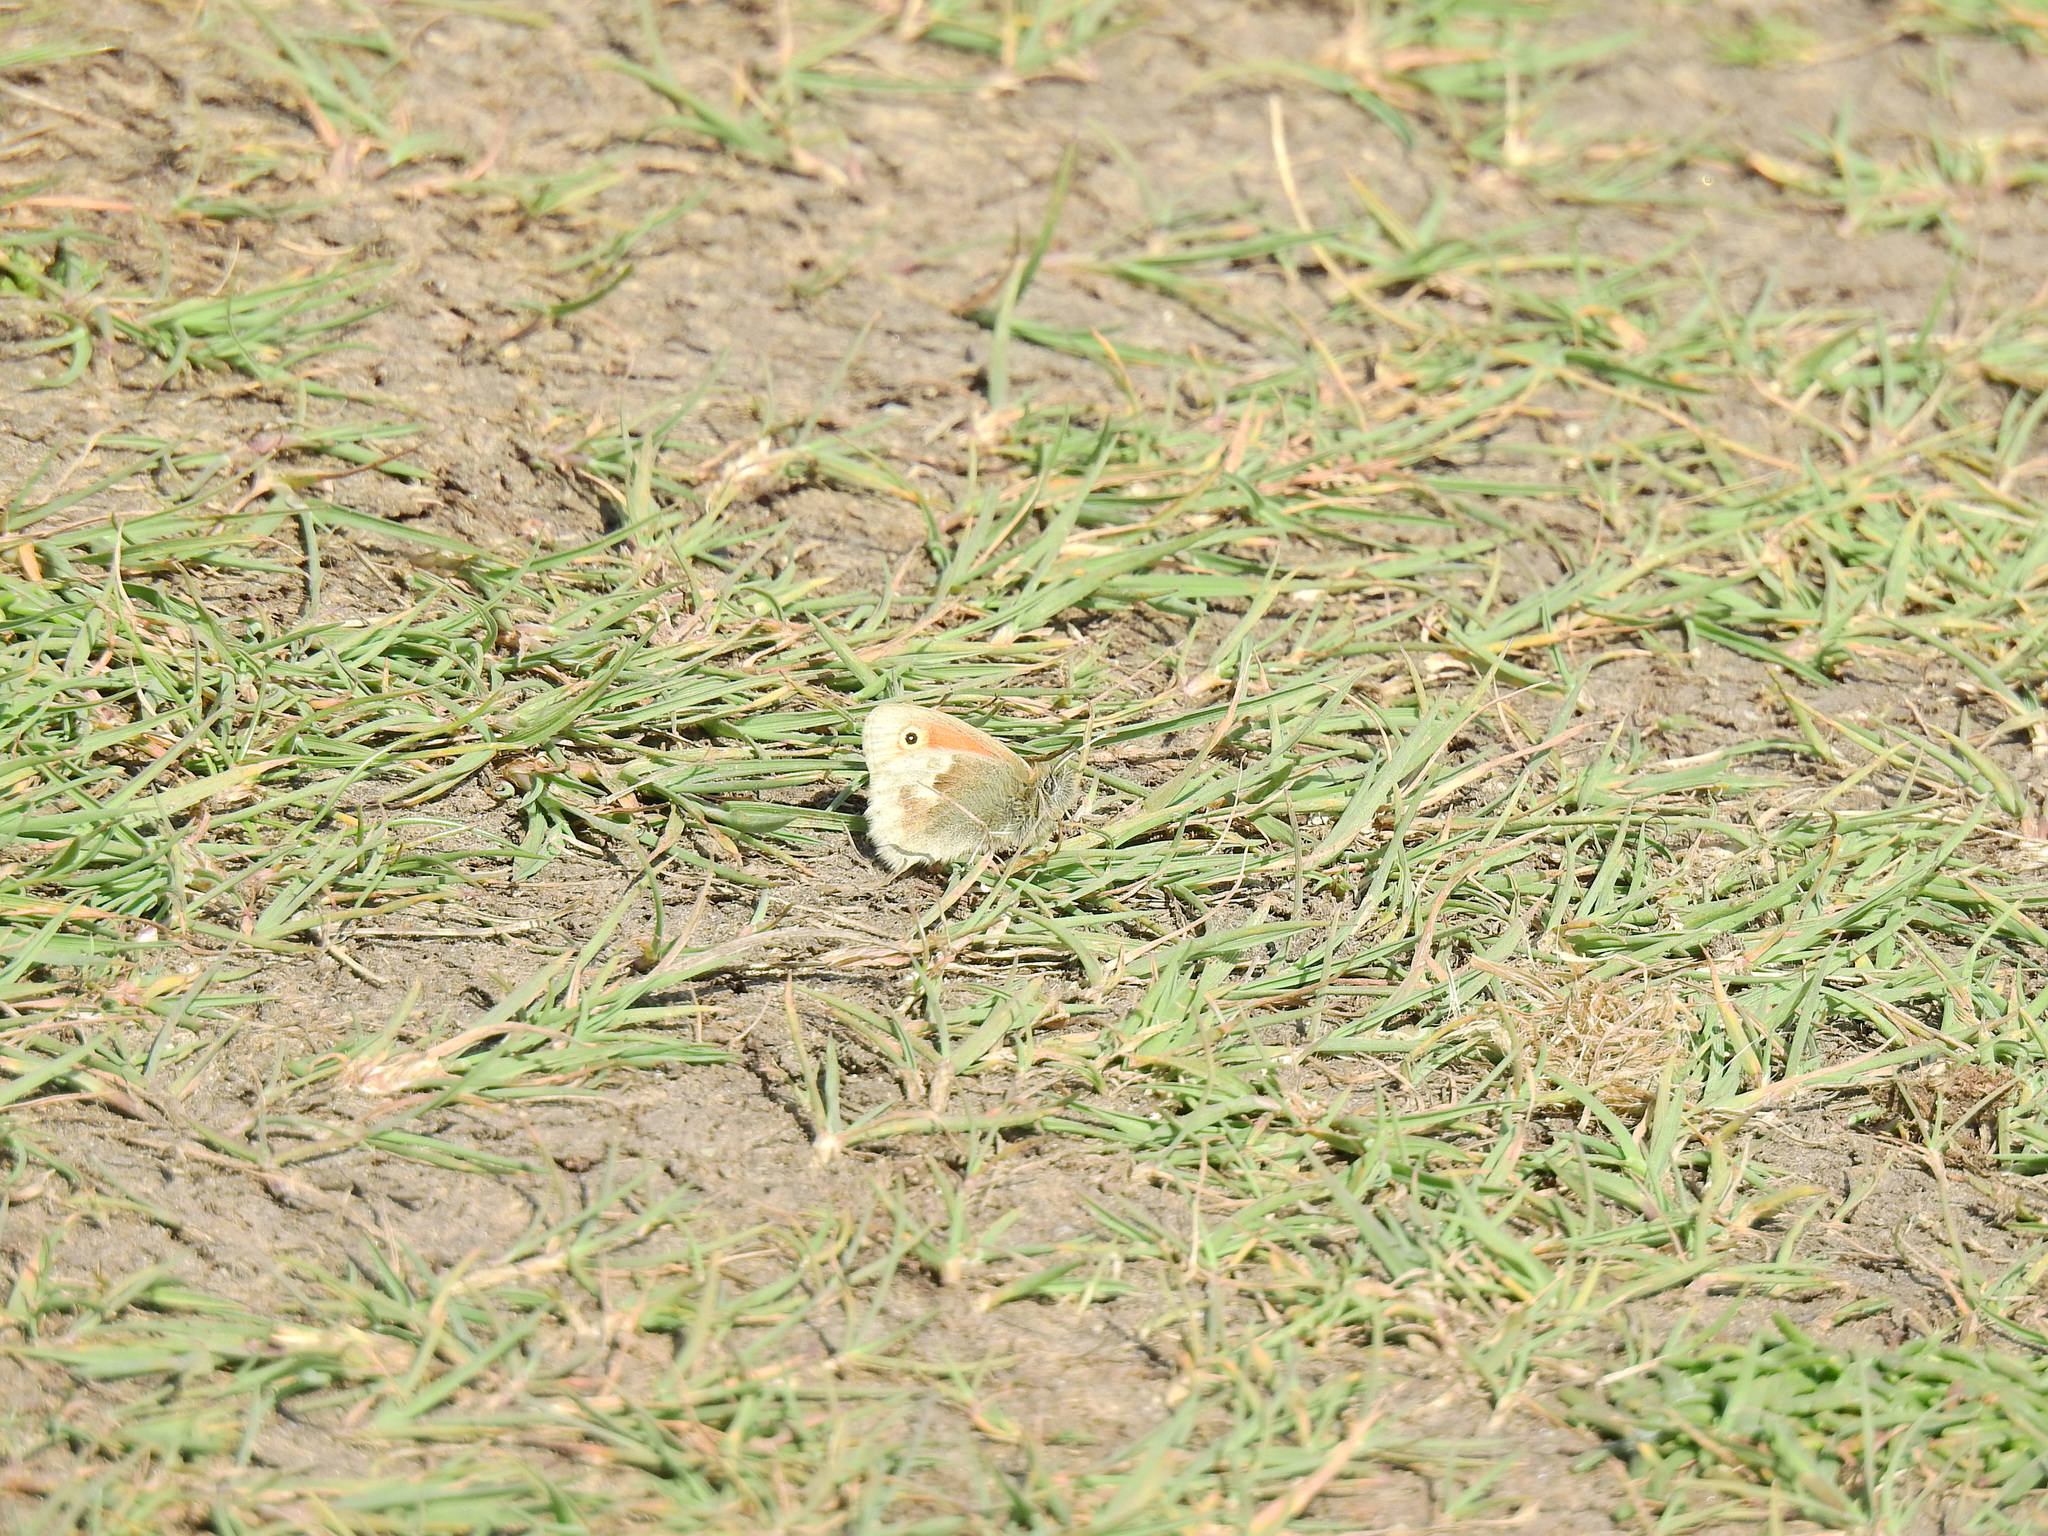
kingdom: Animalia
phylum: Arthropoda
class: Insecta
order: Lepidoptera
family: Nymphalidae
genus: Coenonympha
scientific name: Coenonympha pamphilus
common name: Small heath
